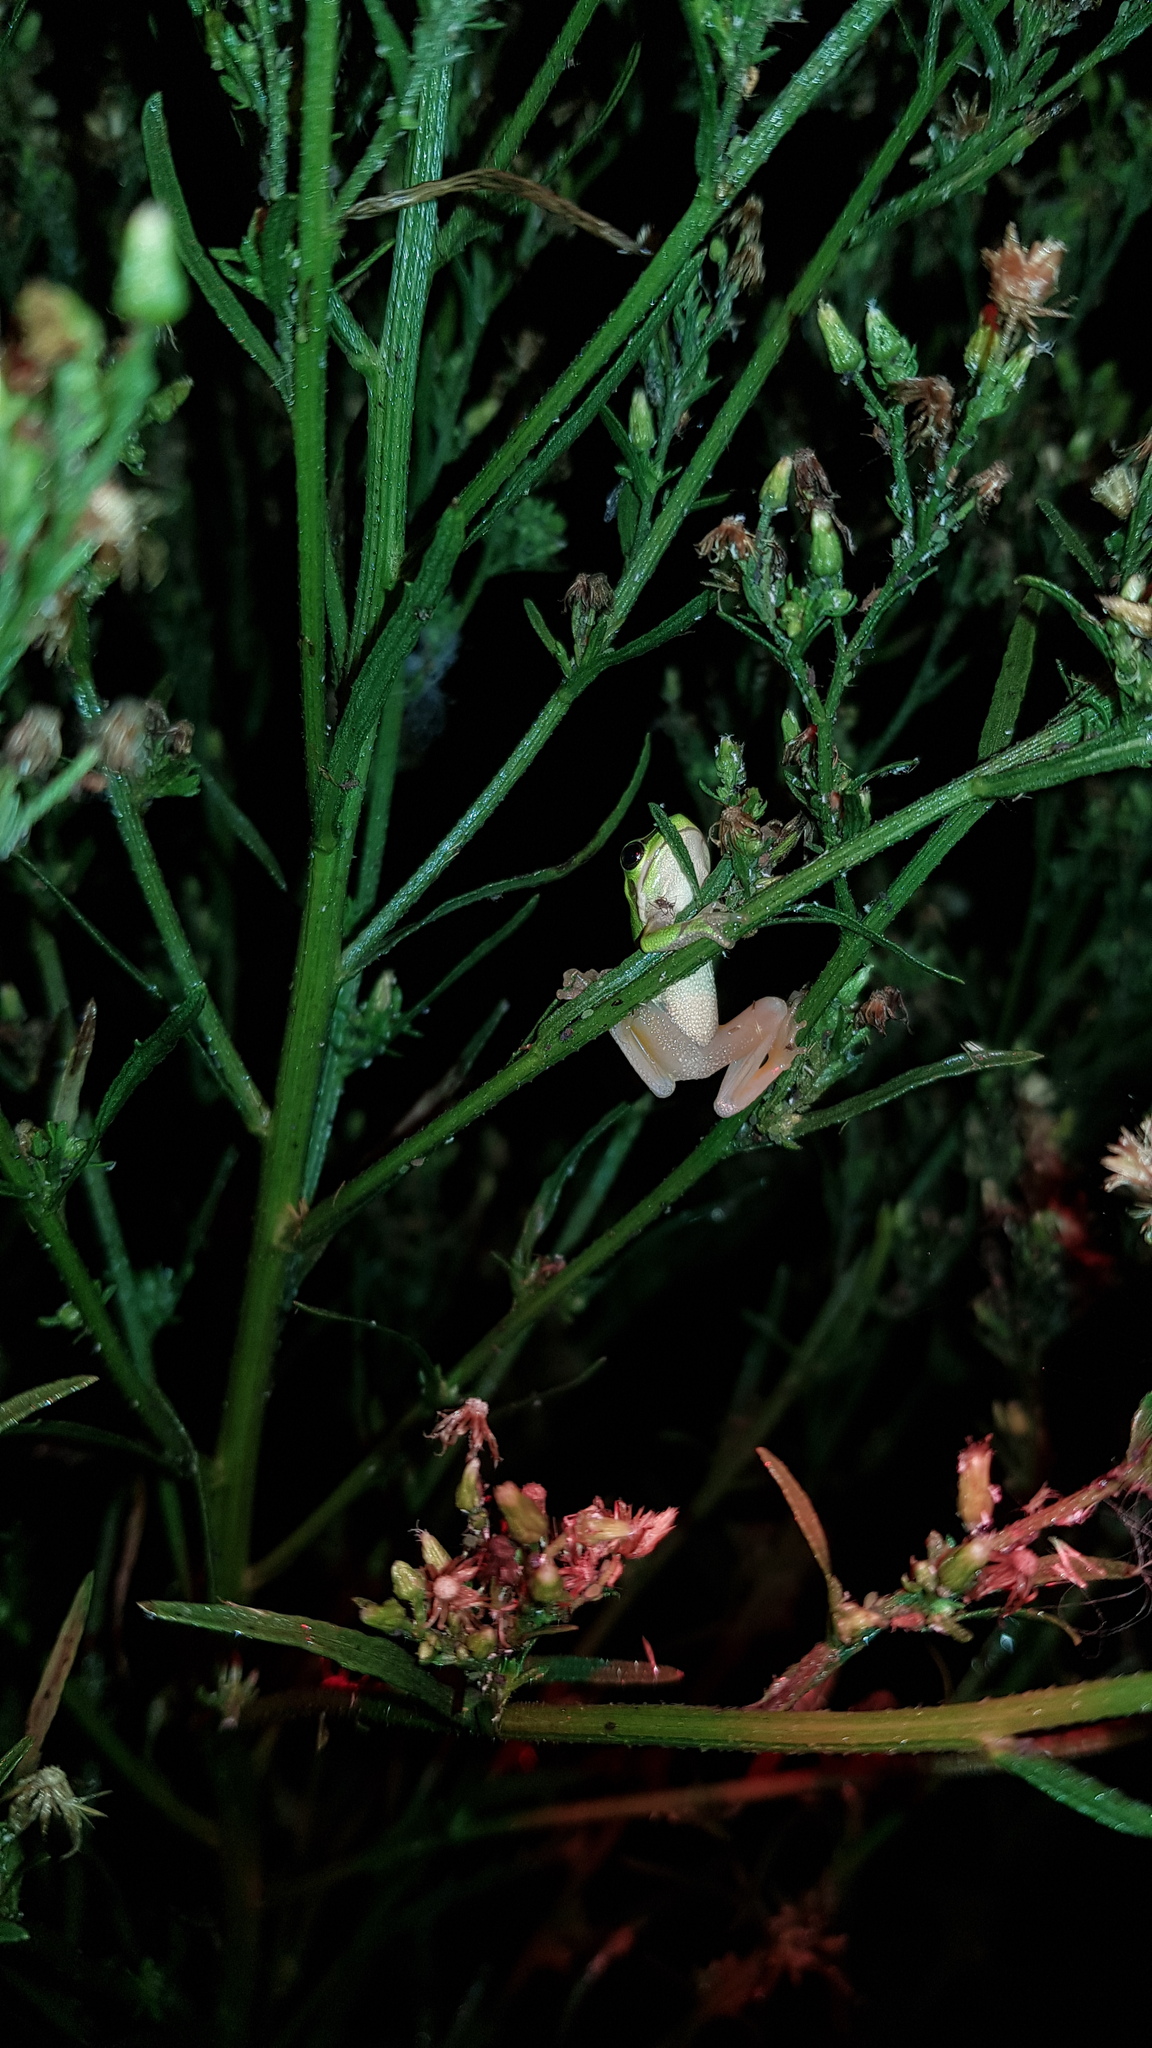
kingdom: Animalia
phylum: Chordata
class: Amphibia
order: Anura
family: Pelodryadidae
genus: Litoria
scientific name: Litoria fallax
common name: Eastern dwarf treefrog
